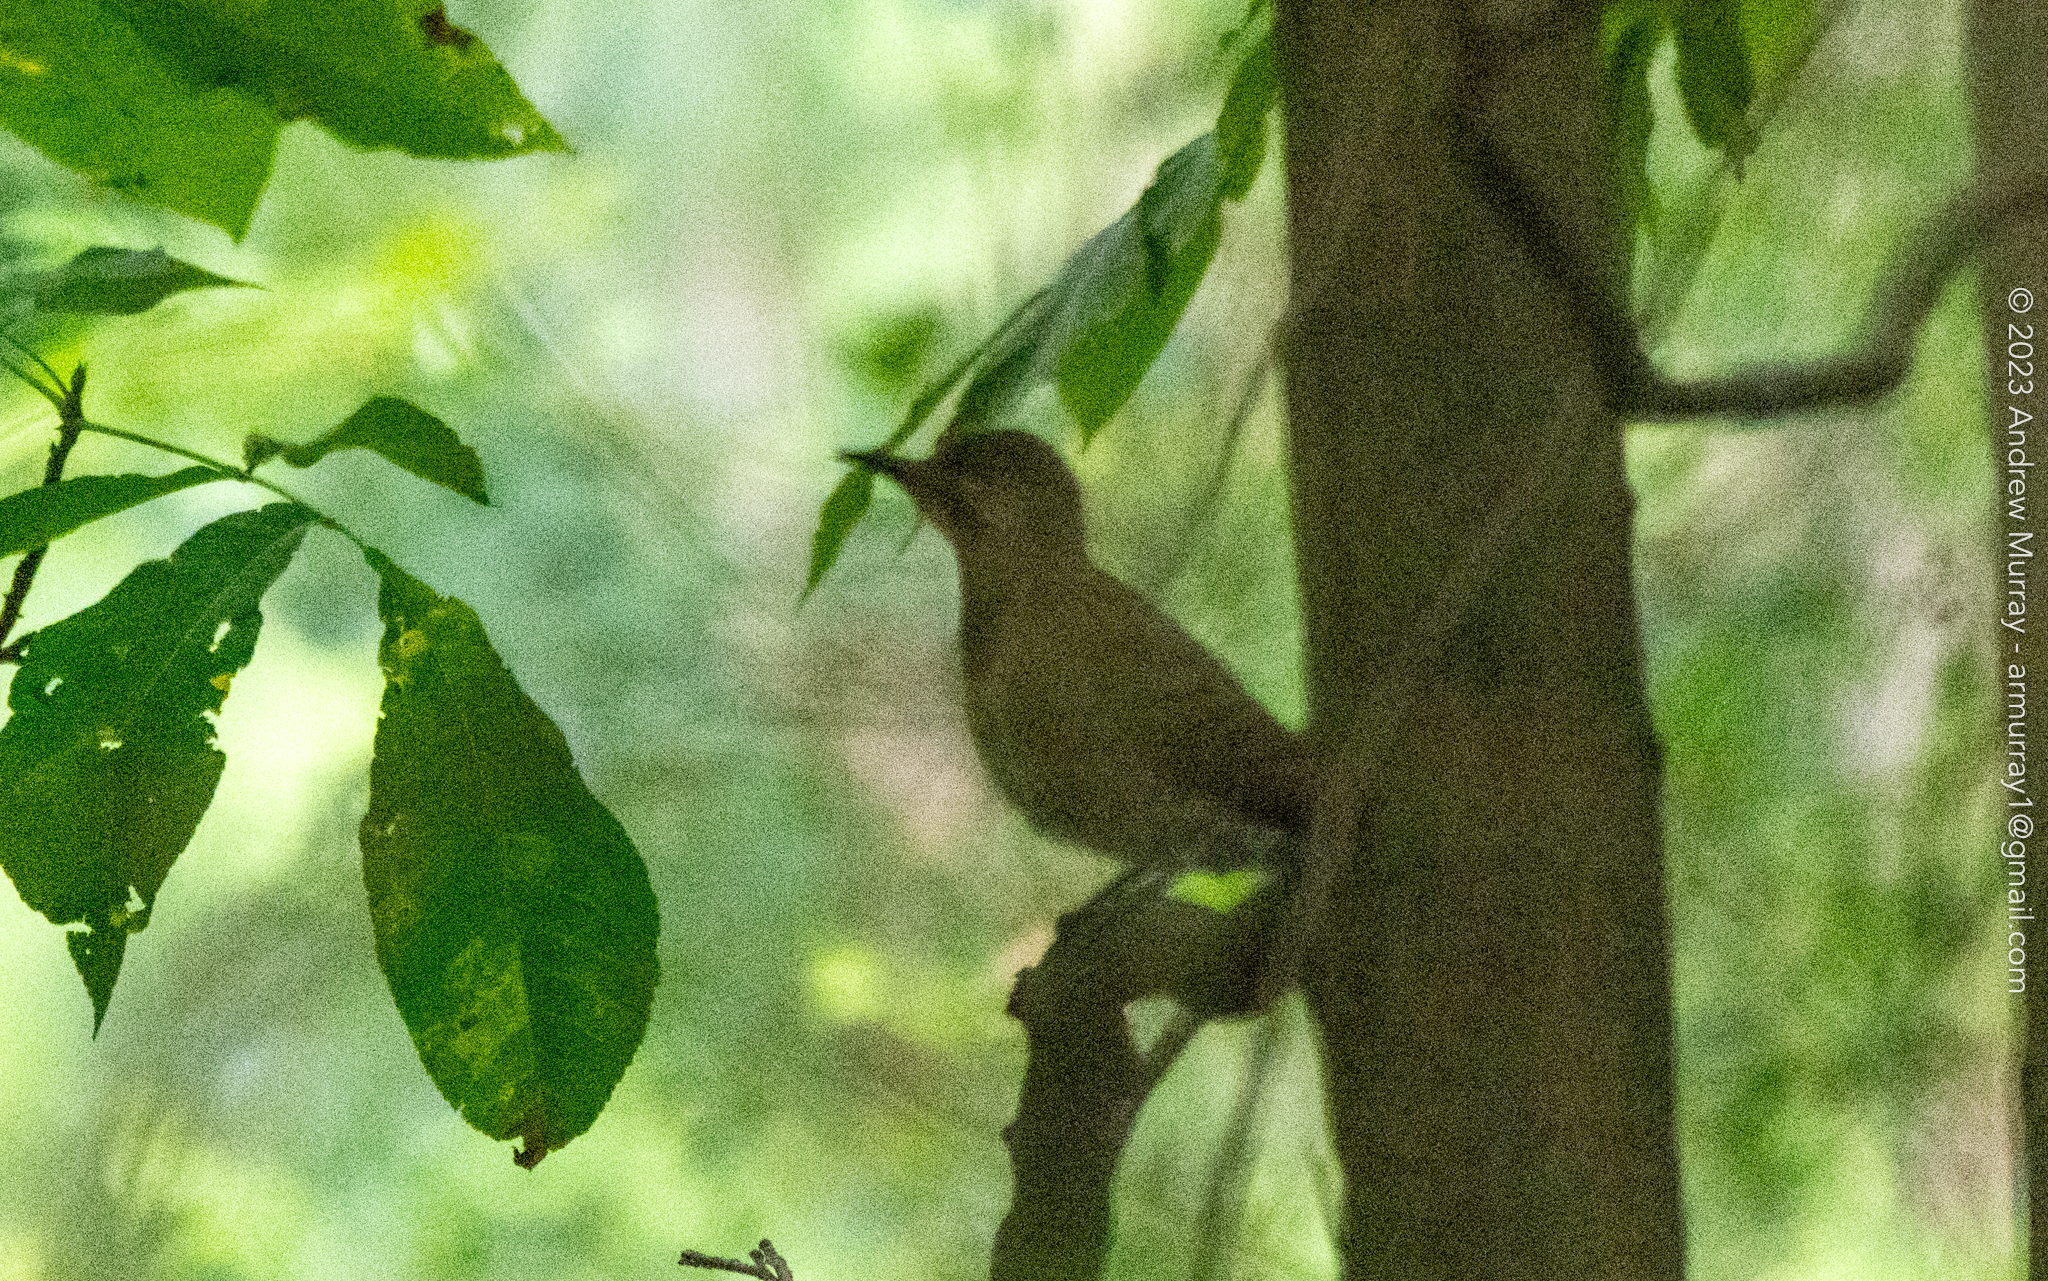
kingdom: Animalia
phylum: Chordata
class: Aves
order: Piciformes
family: Picidae
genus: Colaptes
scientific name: Colaptes auratus
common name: Northern flicker
